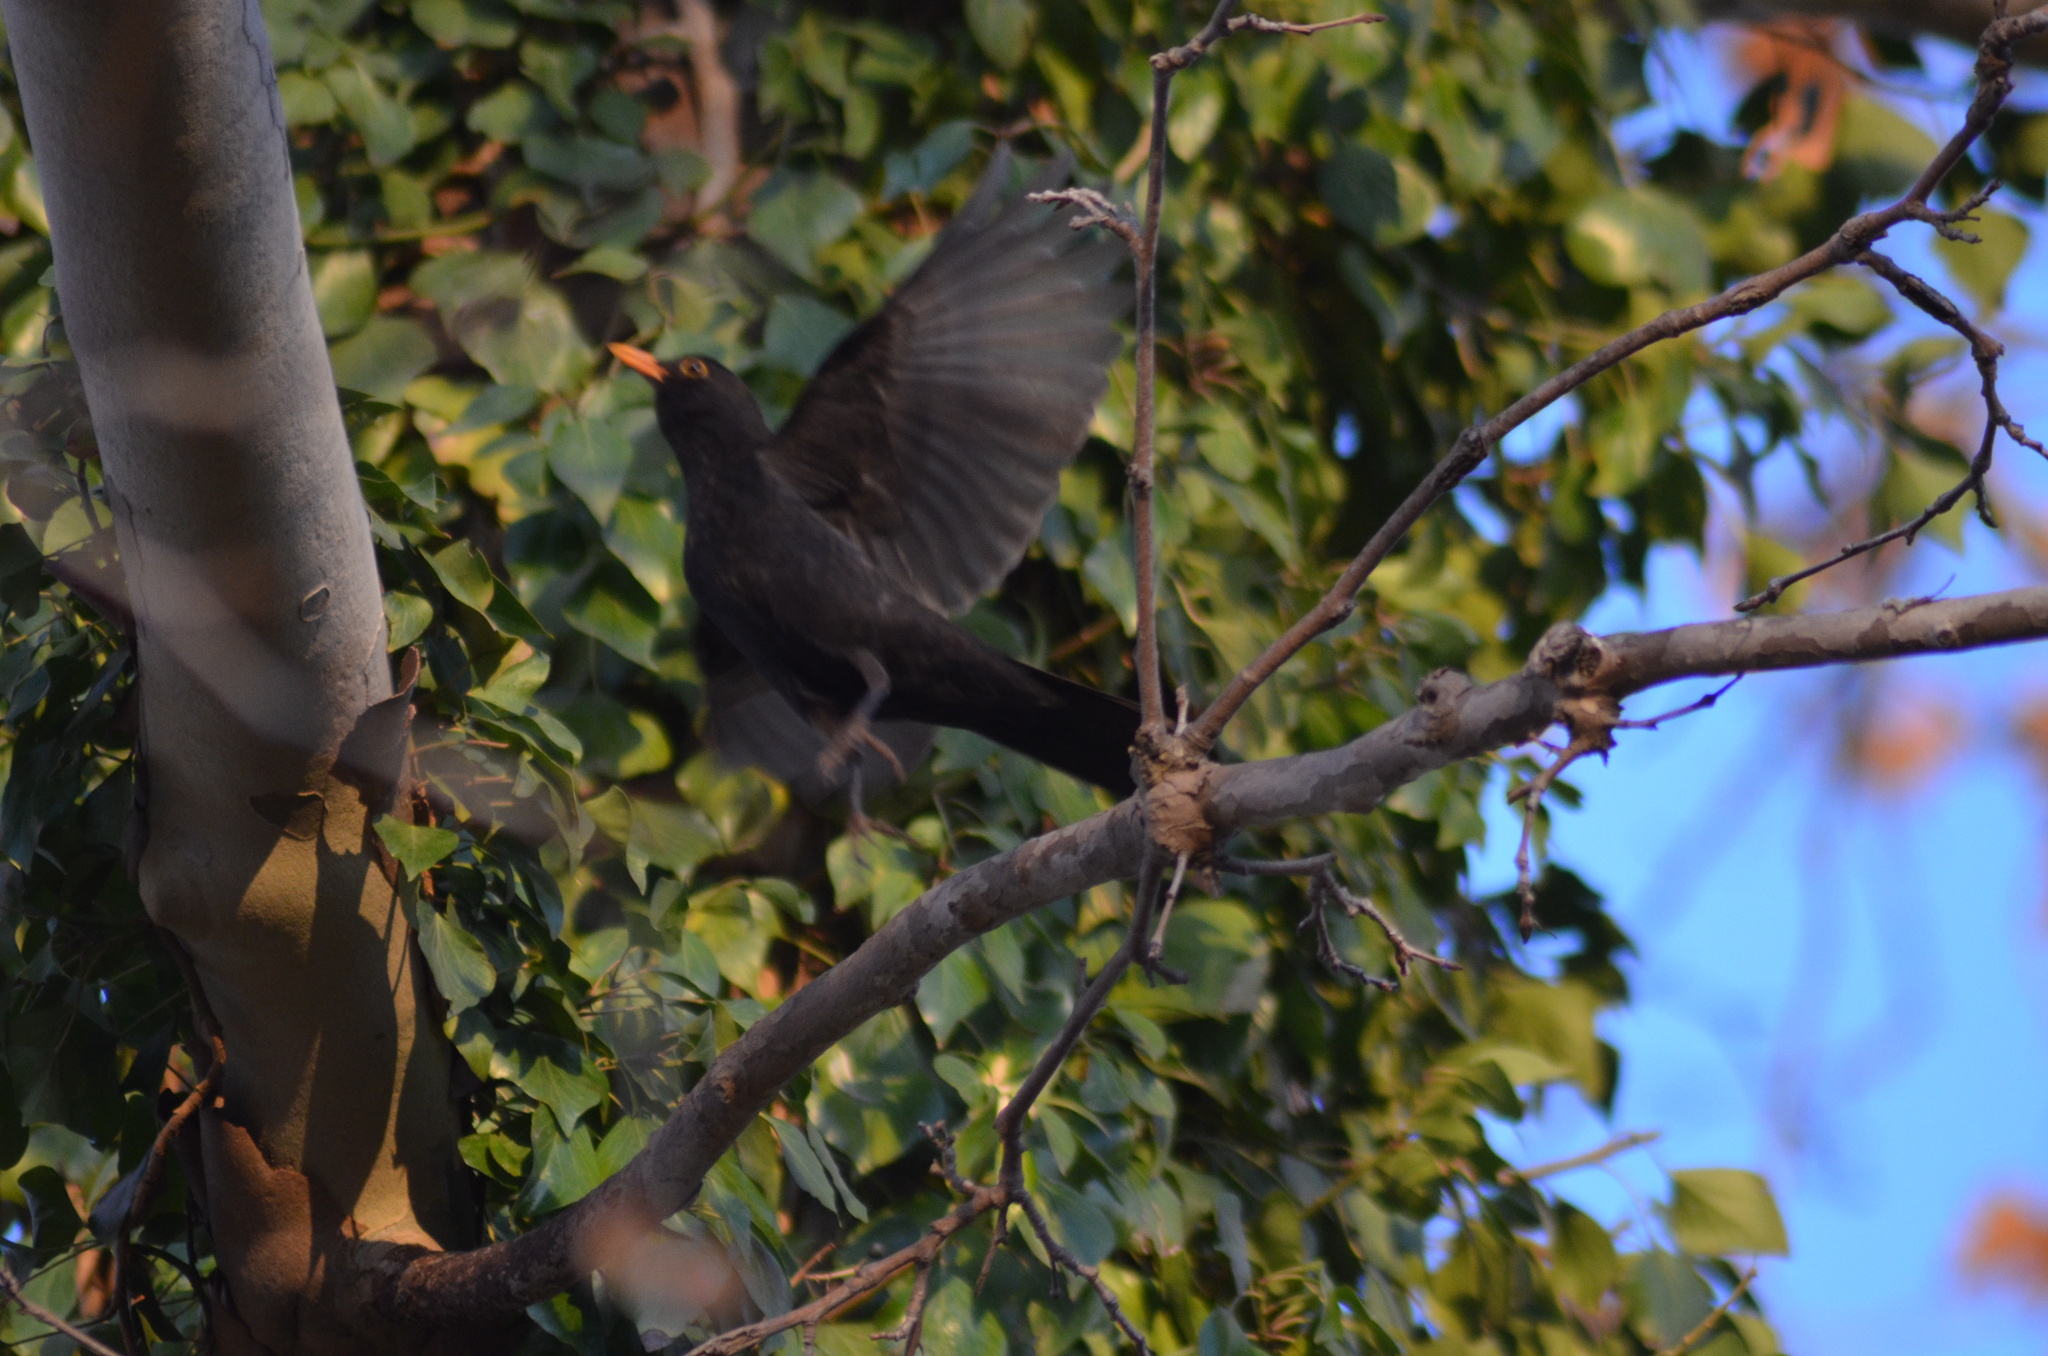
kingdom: Animalia
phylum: Chordata
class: Aves
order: Passeriformes
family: Turdidae
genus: Turdus
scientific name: Turdus merula
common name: Common blackbird
